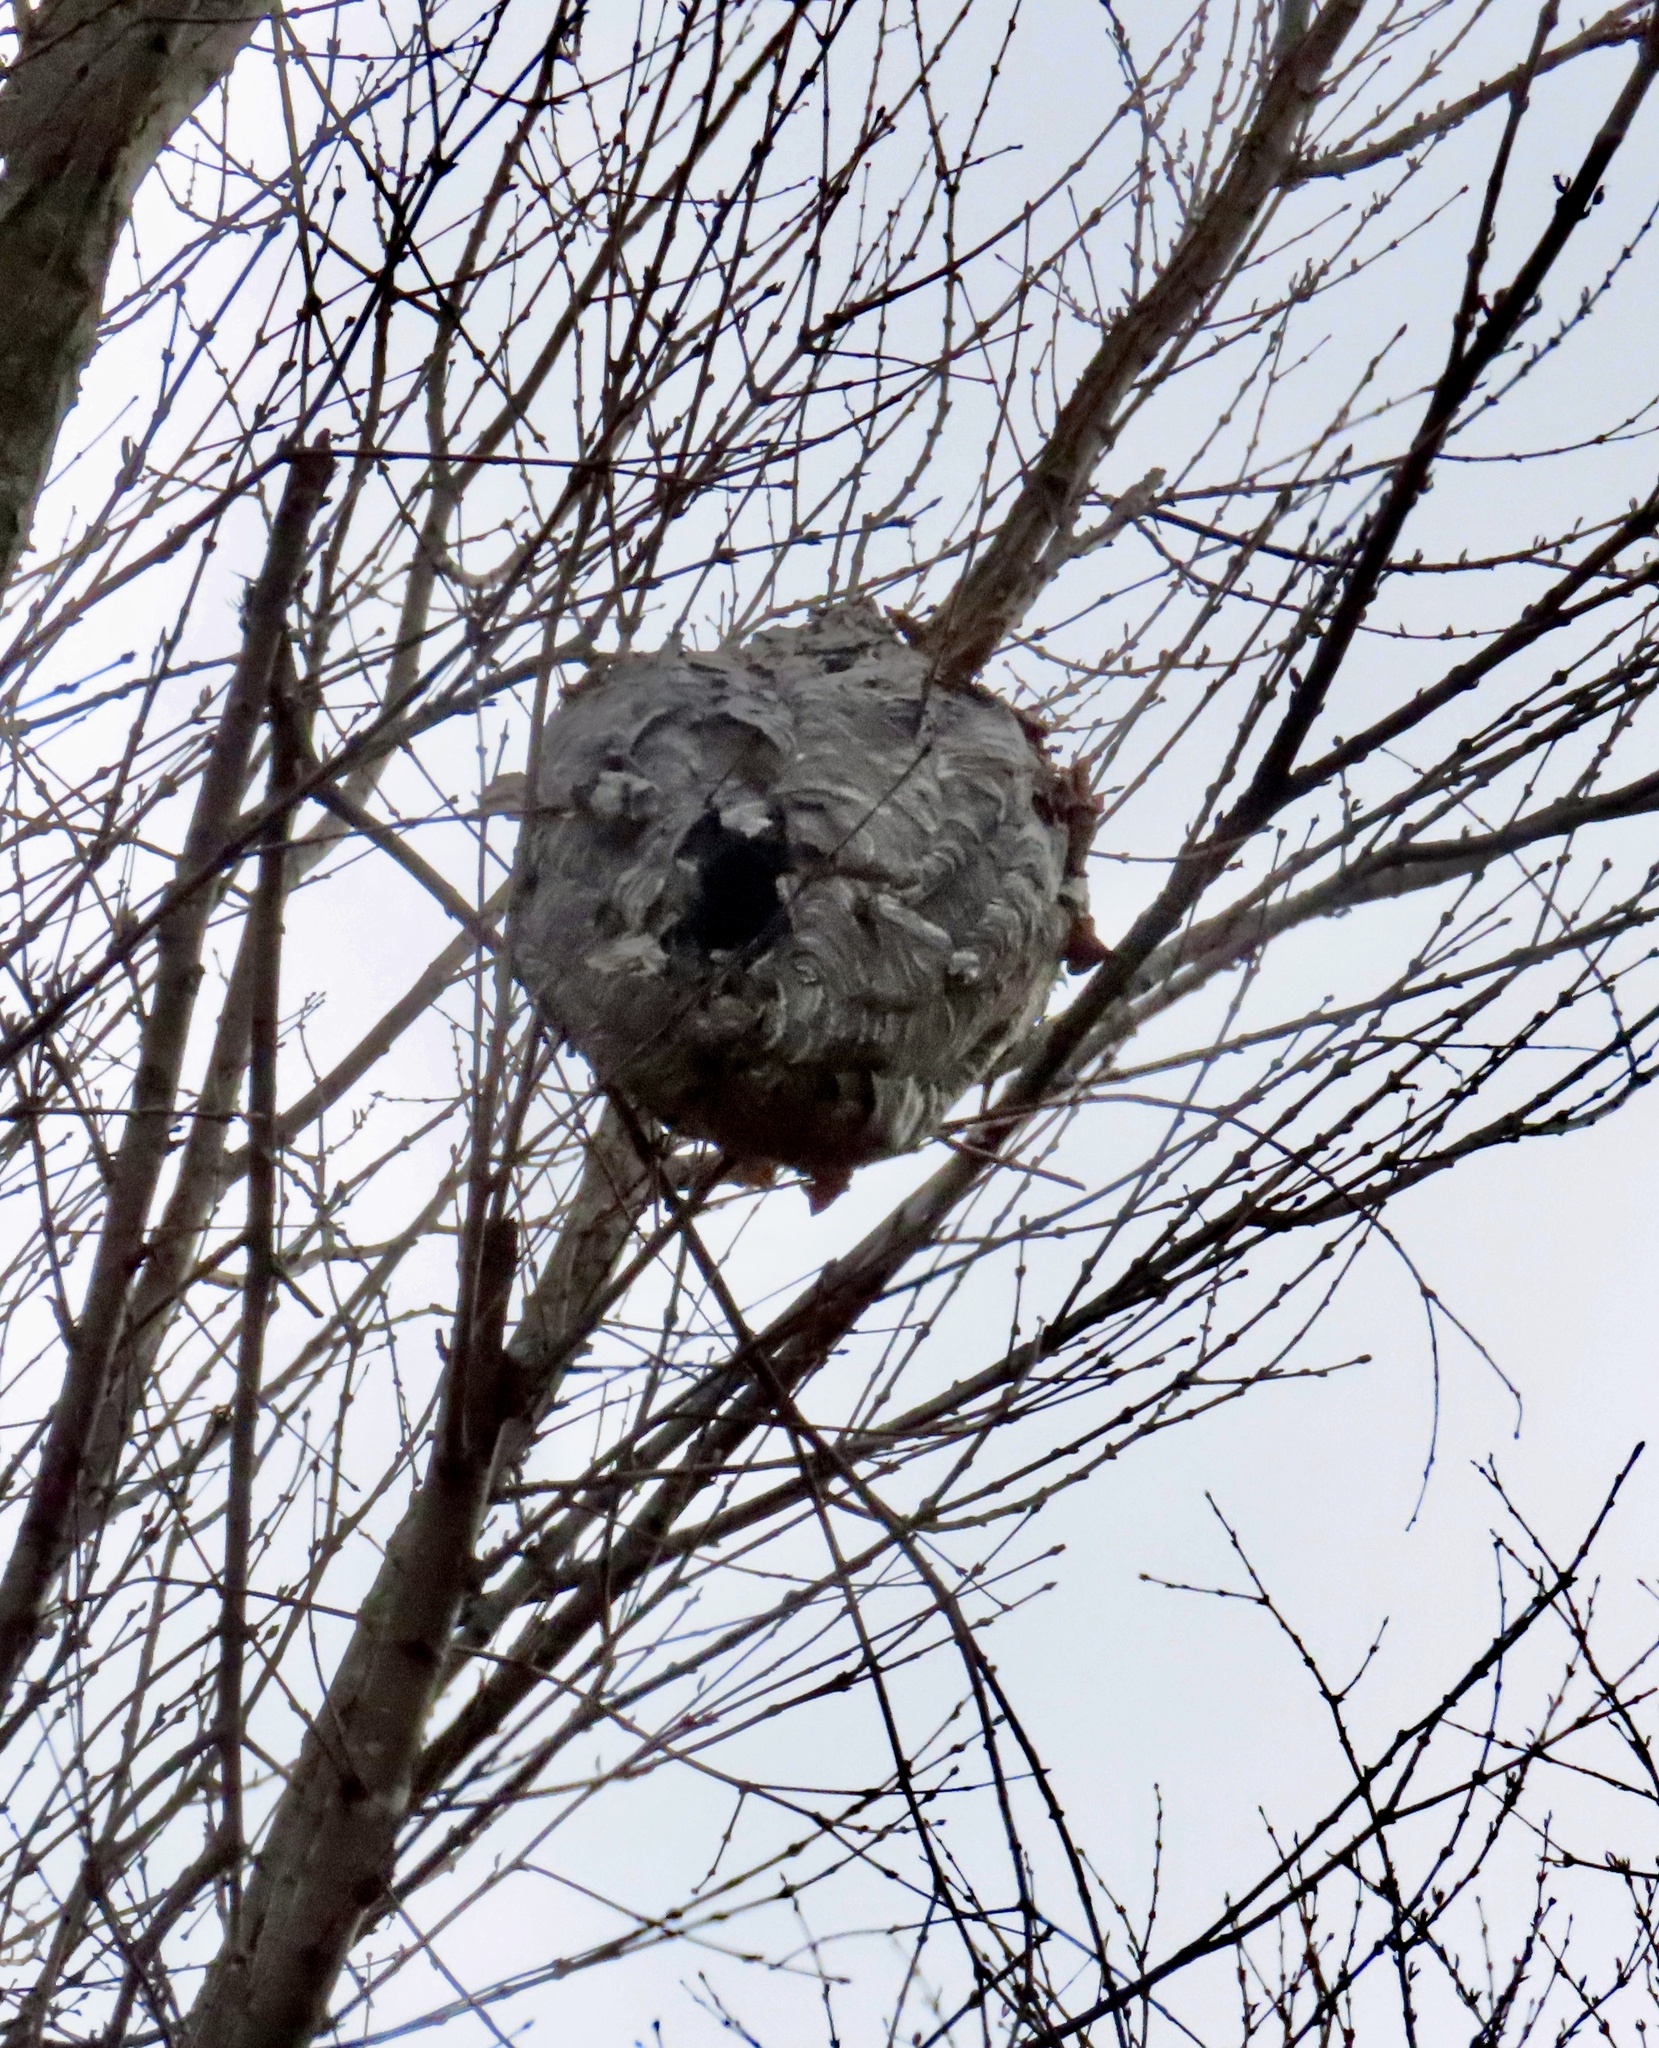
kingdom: Animalia
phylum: Arthropoda
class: Insecta
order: Hymenoptera
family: Vespidae
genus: Dolichovespula
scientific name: Dolichovespula maculata
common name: Bald-faced hornet
